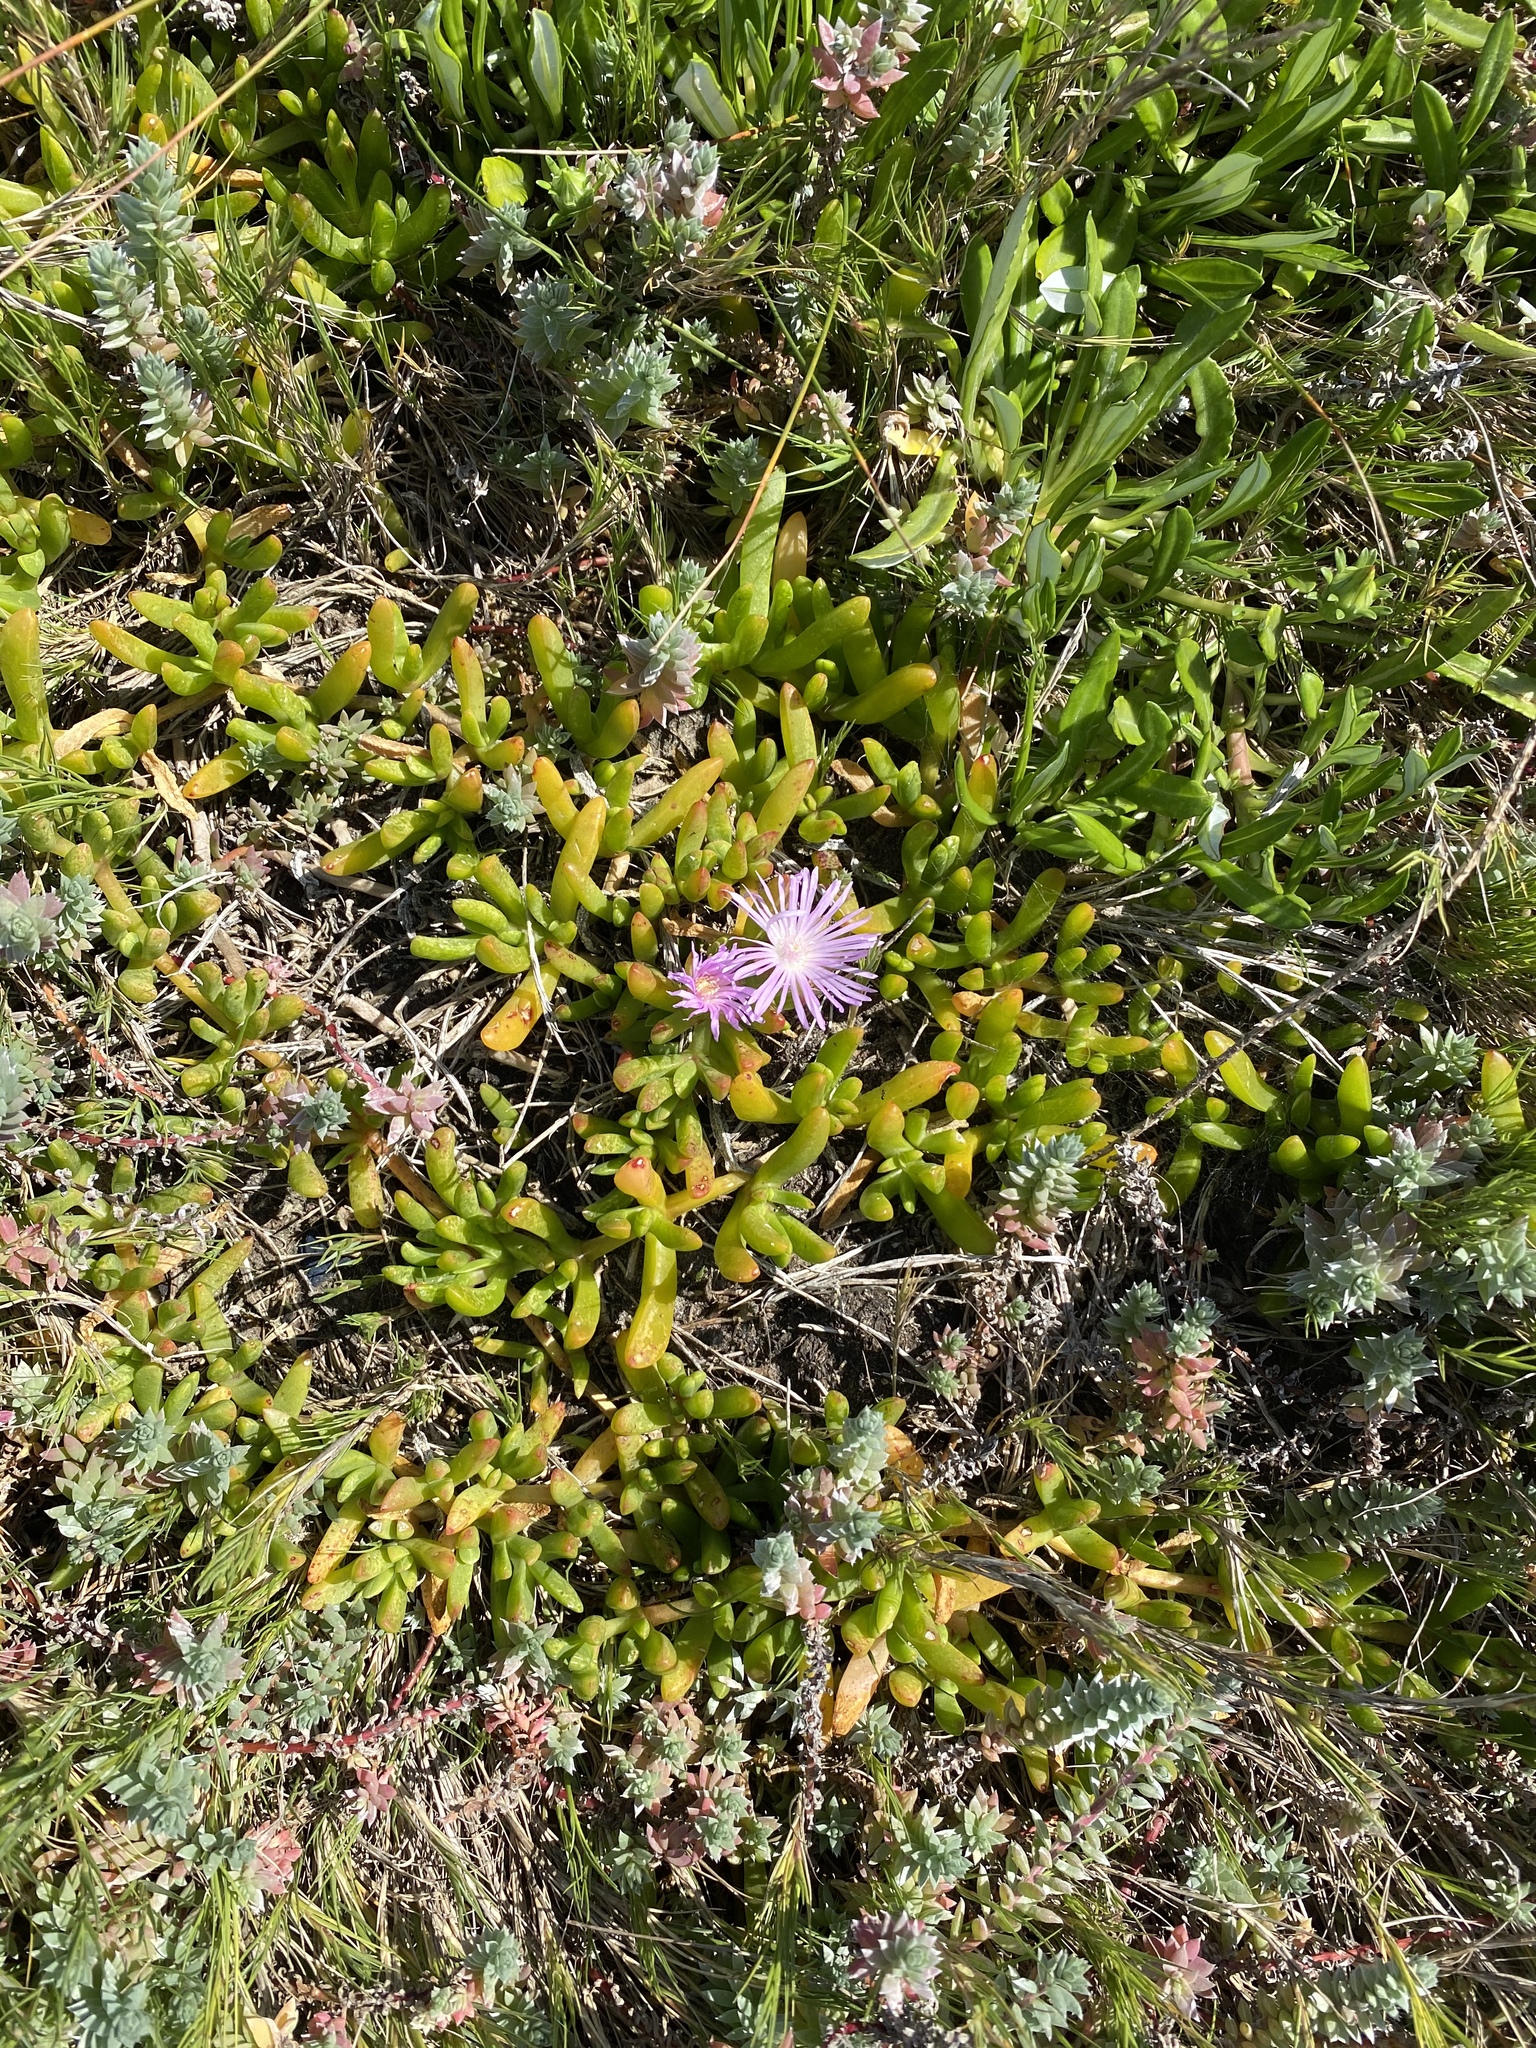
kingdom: Plantae
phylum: Tracheophyta
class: Magnoliopsida
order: Caryophyllales
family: Aizoaceae
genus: Disphyma
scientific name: Disphyma crassifolium
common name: Purple dewplant
